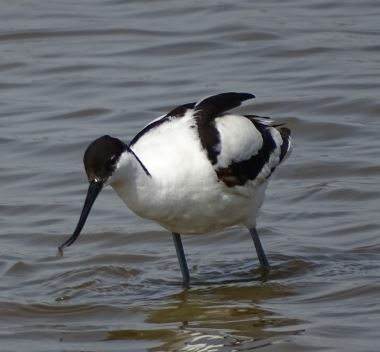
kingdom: Animalia
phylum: Chordata
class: Aves
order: Charadriiformes
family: Recurvirostridae
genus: Recurvirostra
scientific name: Recurvirostra avosetta
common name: Pied avocet
